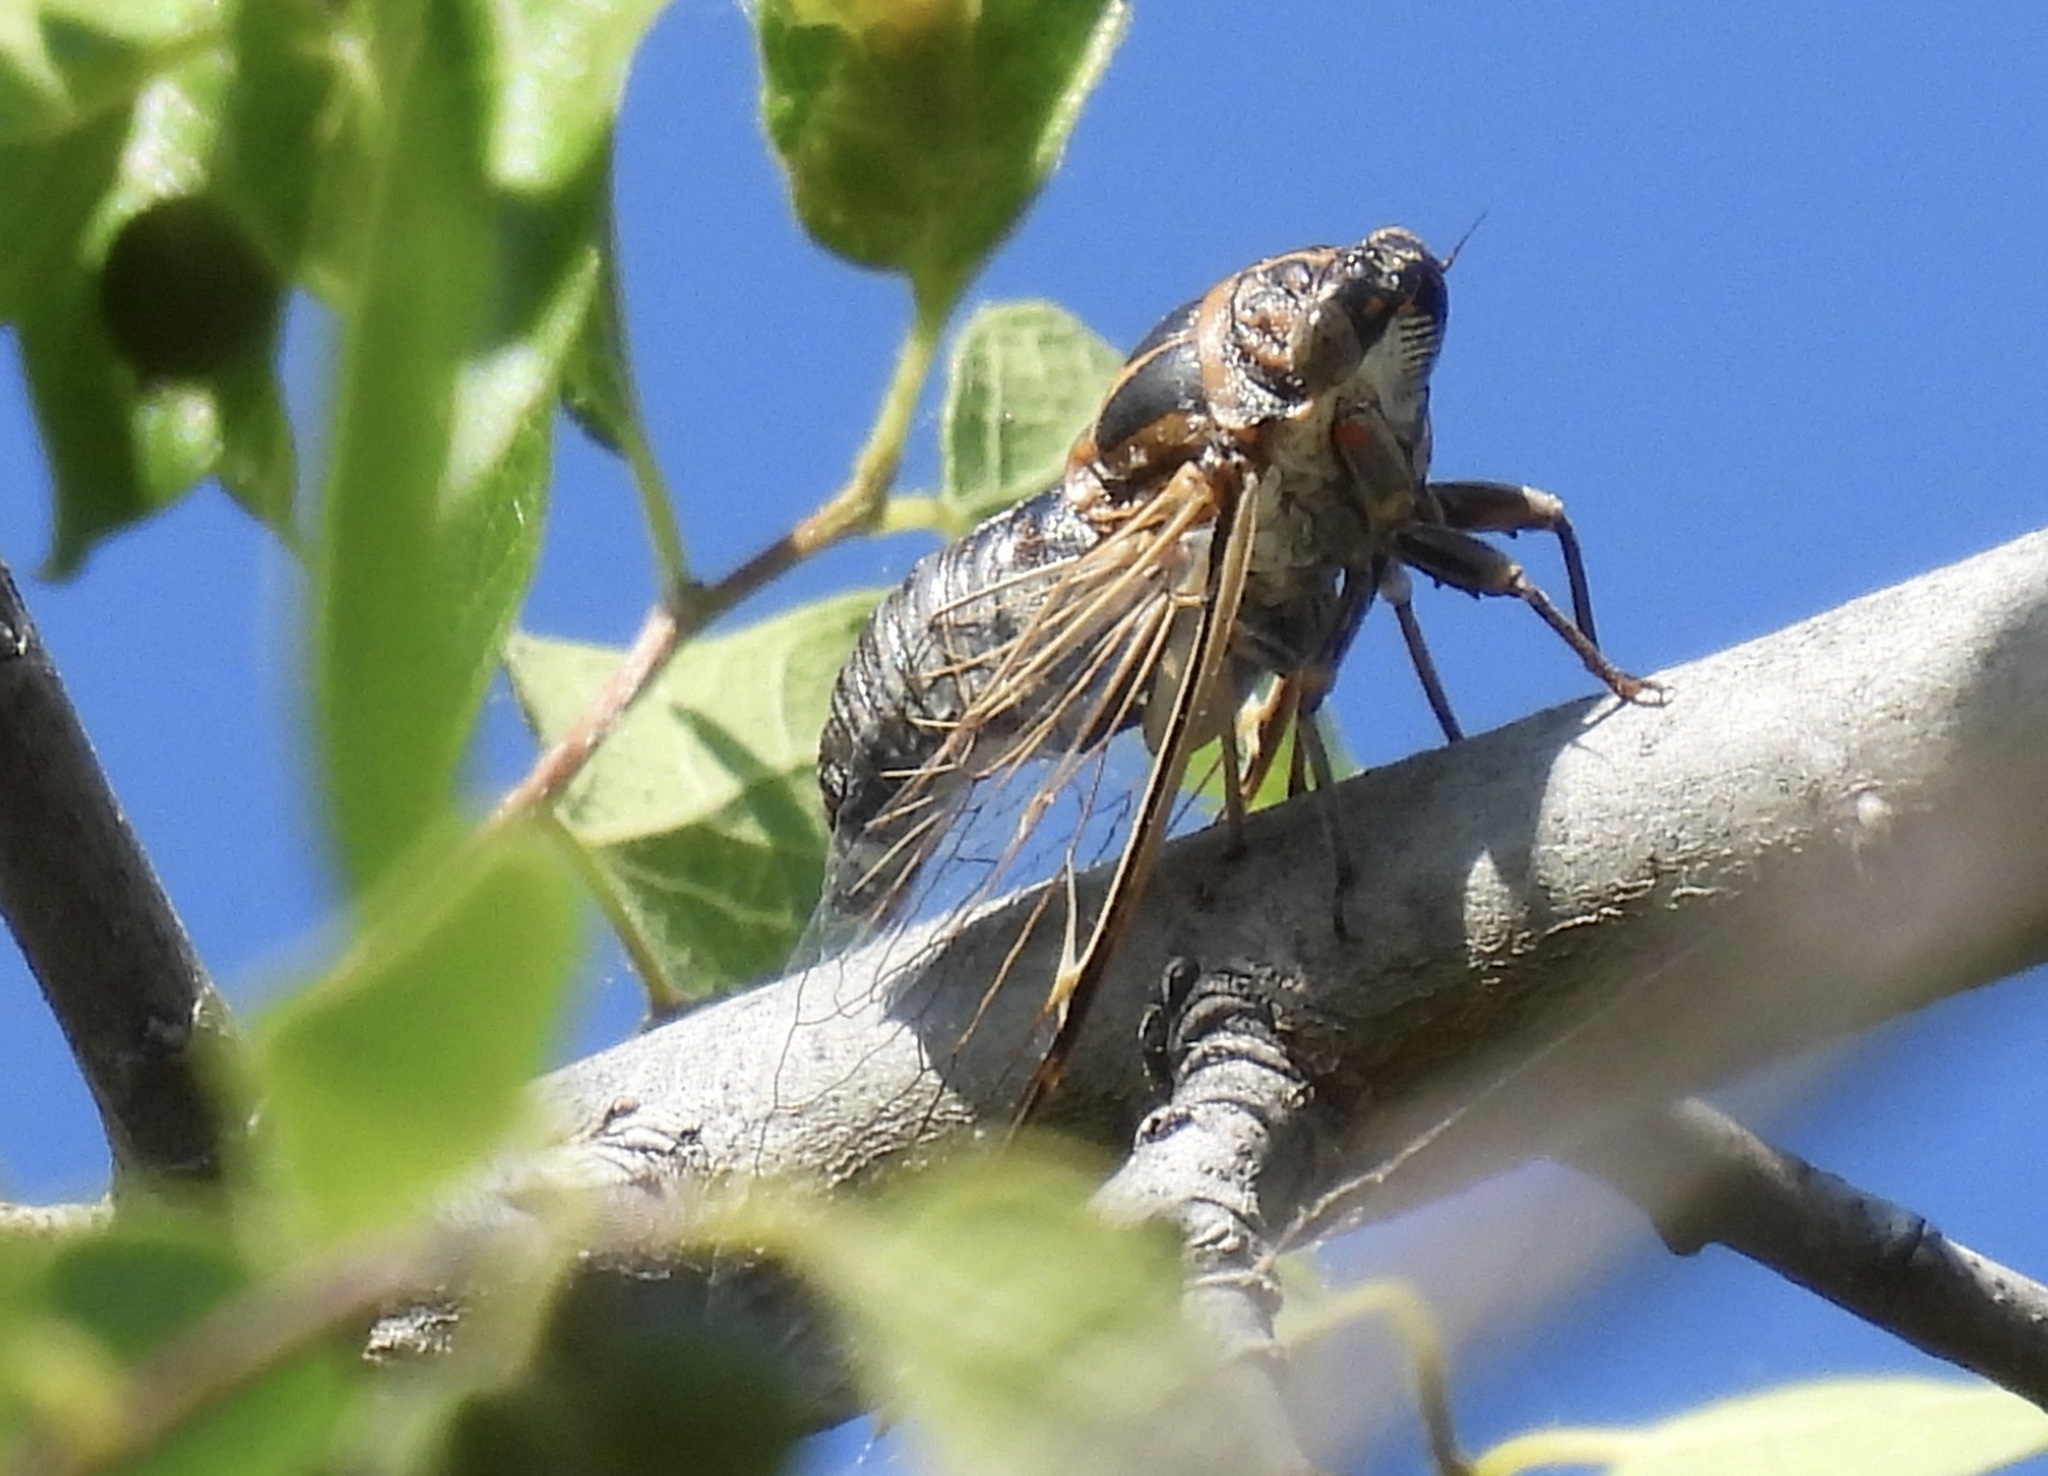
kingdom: Animalia
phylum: Arthropoda
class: Insecta
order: Hemiptera
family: Cicadidae
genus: Diceroprocta
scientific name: Diceroprocta eugraphica
